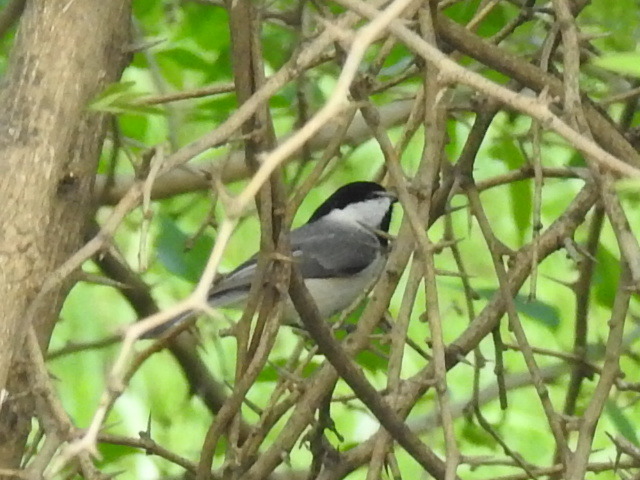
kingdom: Animalia
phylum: Chordata
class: Aves
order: Passeriformes
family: Paridae
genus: Poecile
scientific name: Poecile carolinensis
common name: Carolina chickadee
